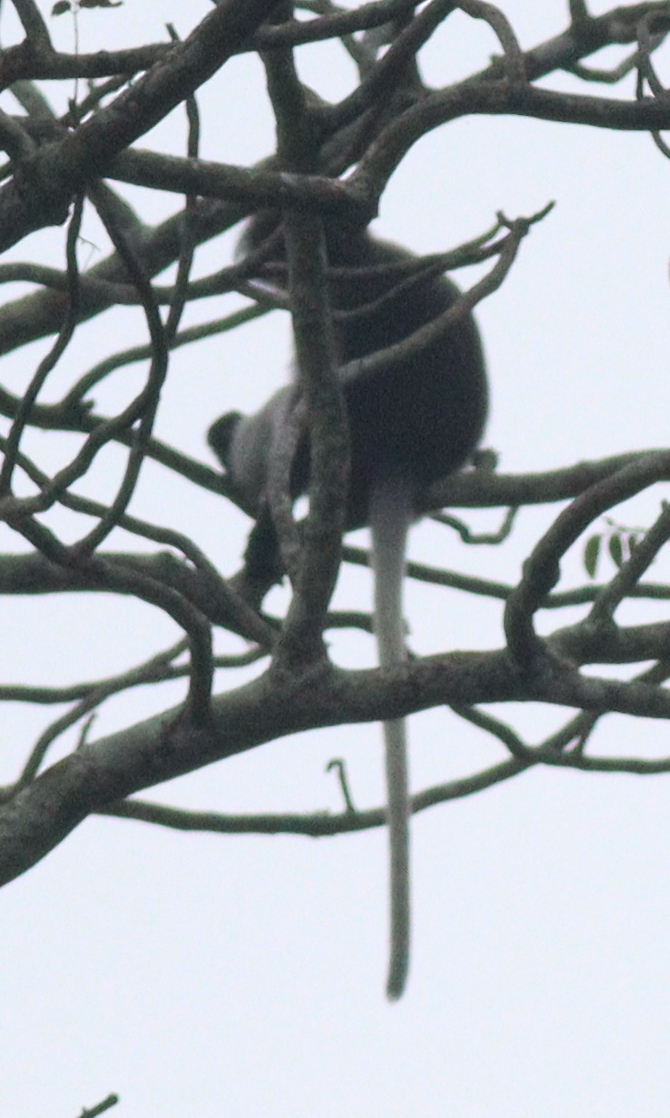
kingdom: Animalia
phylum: Chordata
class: Mammalia
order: Primates
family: Cercopithecidae
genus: Trachypithecus
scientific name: Trachypithecus obscurus
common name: Dusky leaf-monkey
